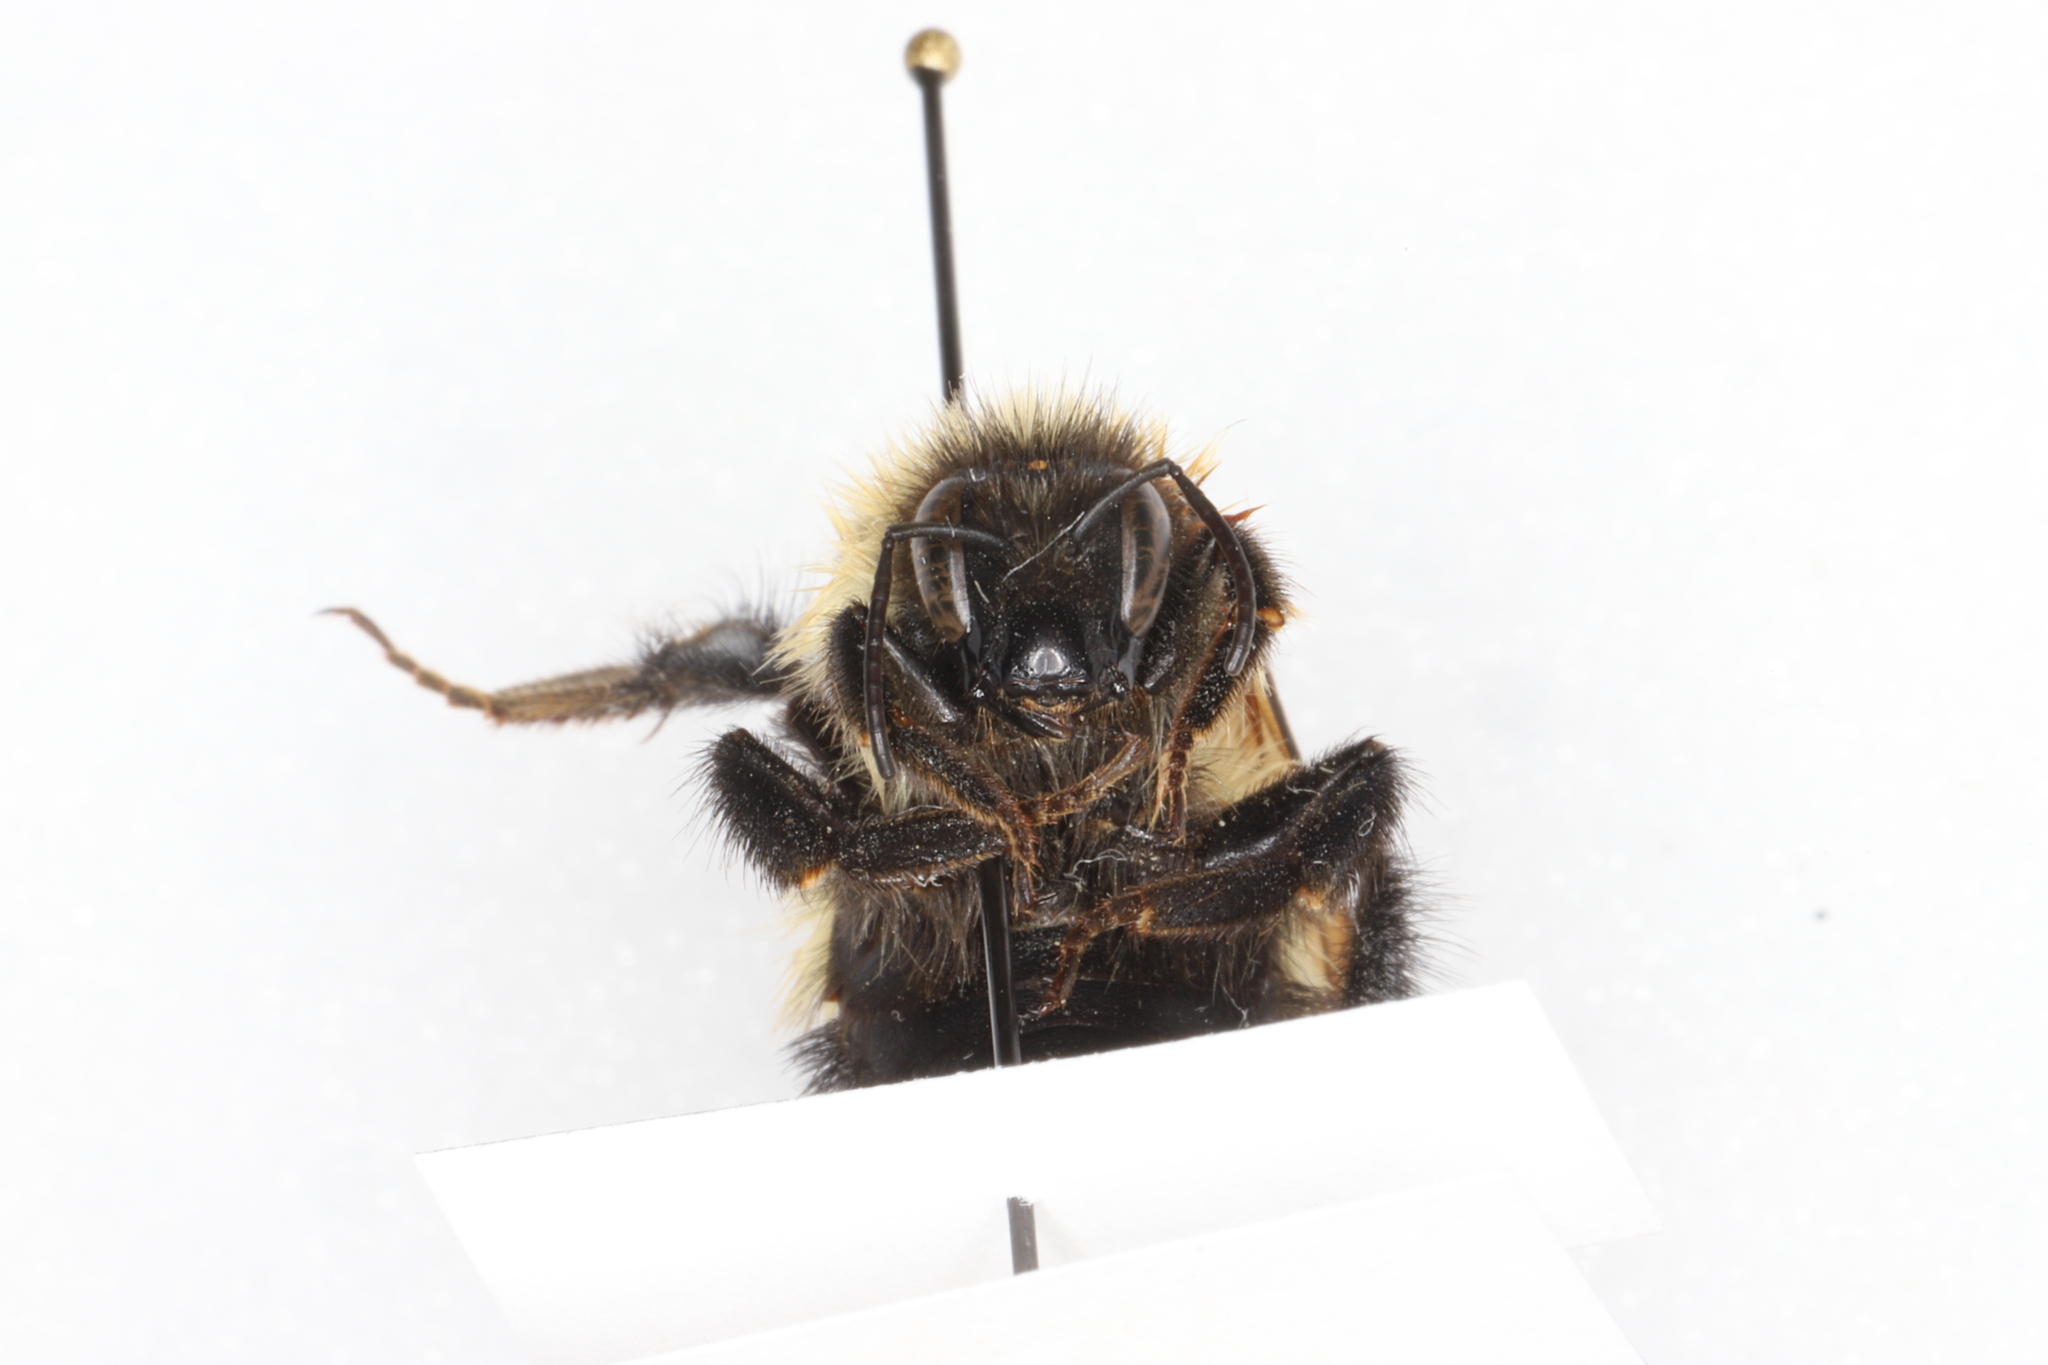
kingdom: Animalia
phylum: Arthropoda
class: Insecta
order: Hymenoptera
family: Apidae
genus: Bombus
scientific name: Bombus vagans
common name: Half-black bumble bee
